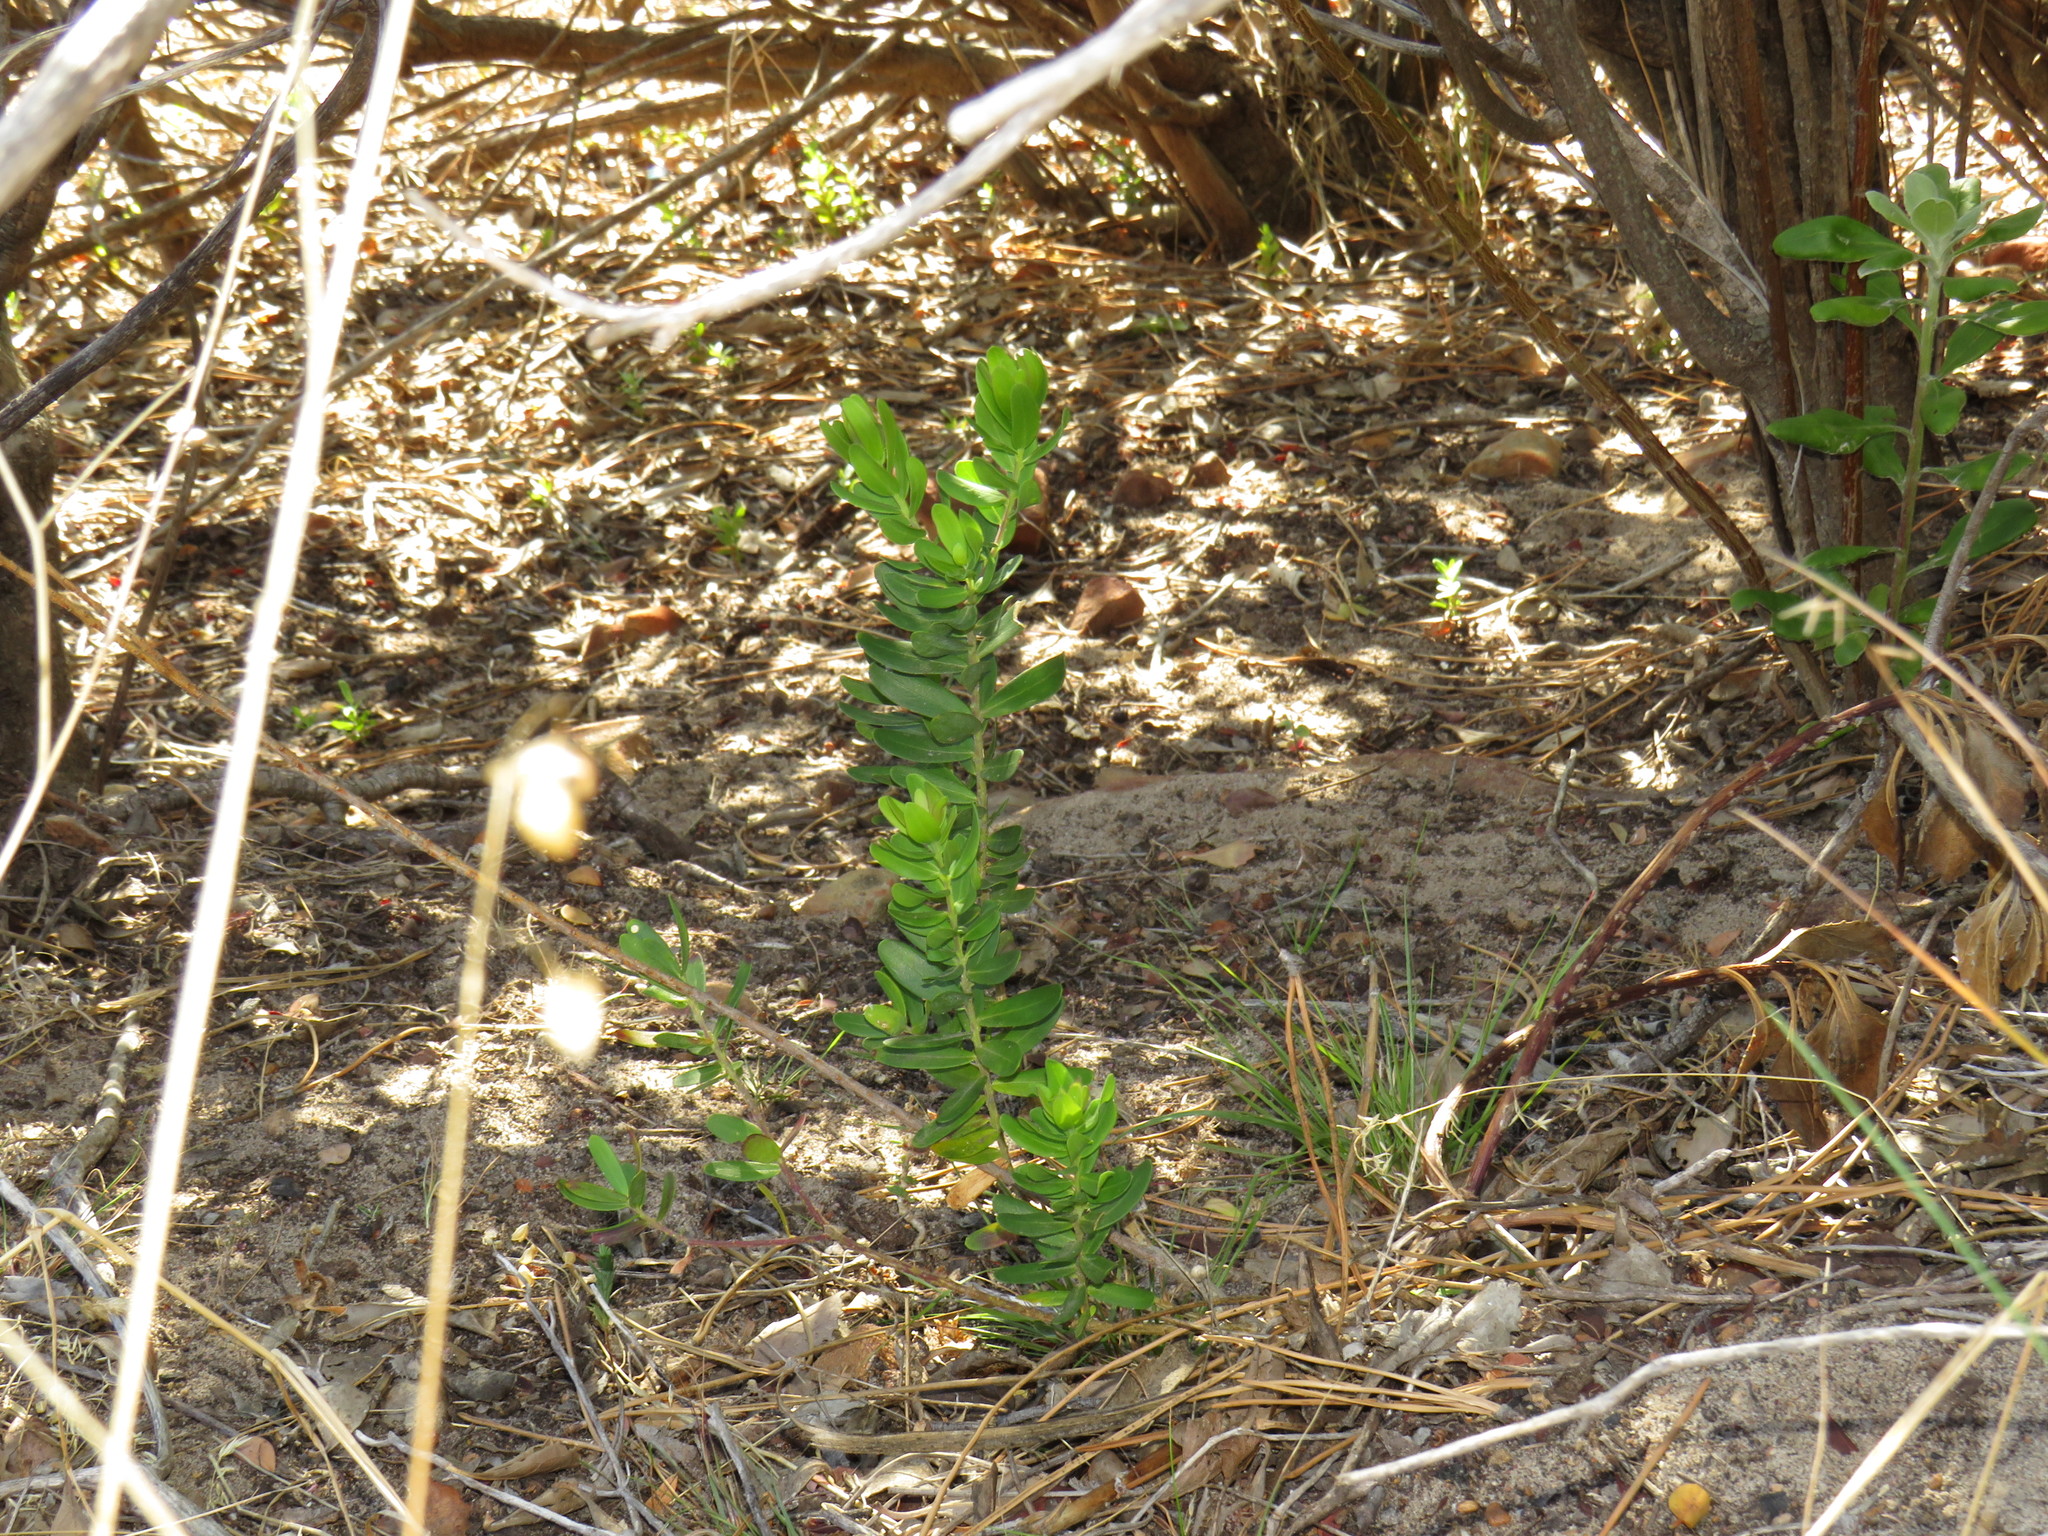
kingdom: Plantae
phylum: Tracheophyta
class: Magnoliopsida
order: Fabales
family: Polygalaceae
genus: Polygala
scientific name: Polygala myrtifolia
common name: Myrtle-leaf milkwort
